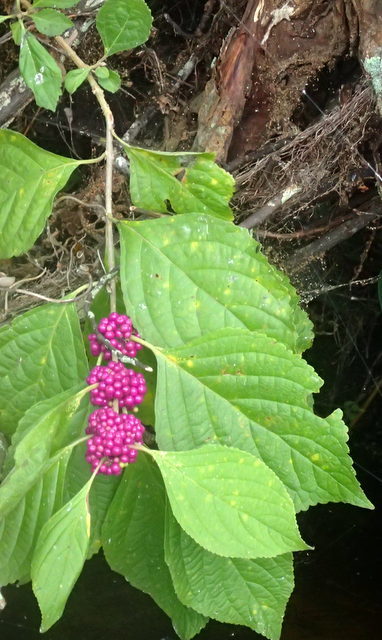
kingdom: Plantae
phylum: Tracheophyta
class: Magnoliopsida
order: Lamiales
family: Lamiaceae
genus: Callicarpa
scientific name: Callicarpa americana
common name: American beautyberry
